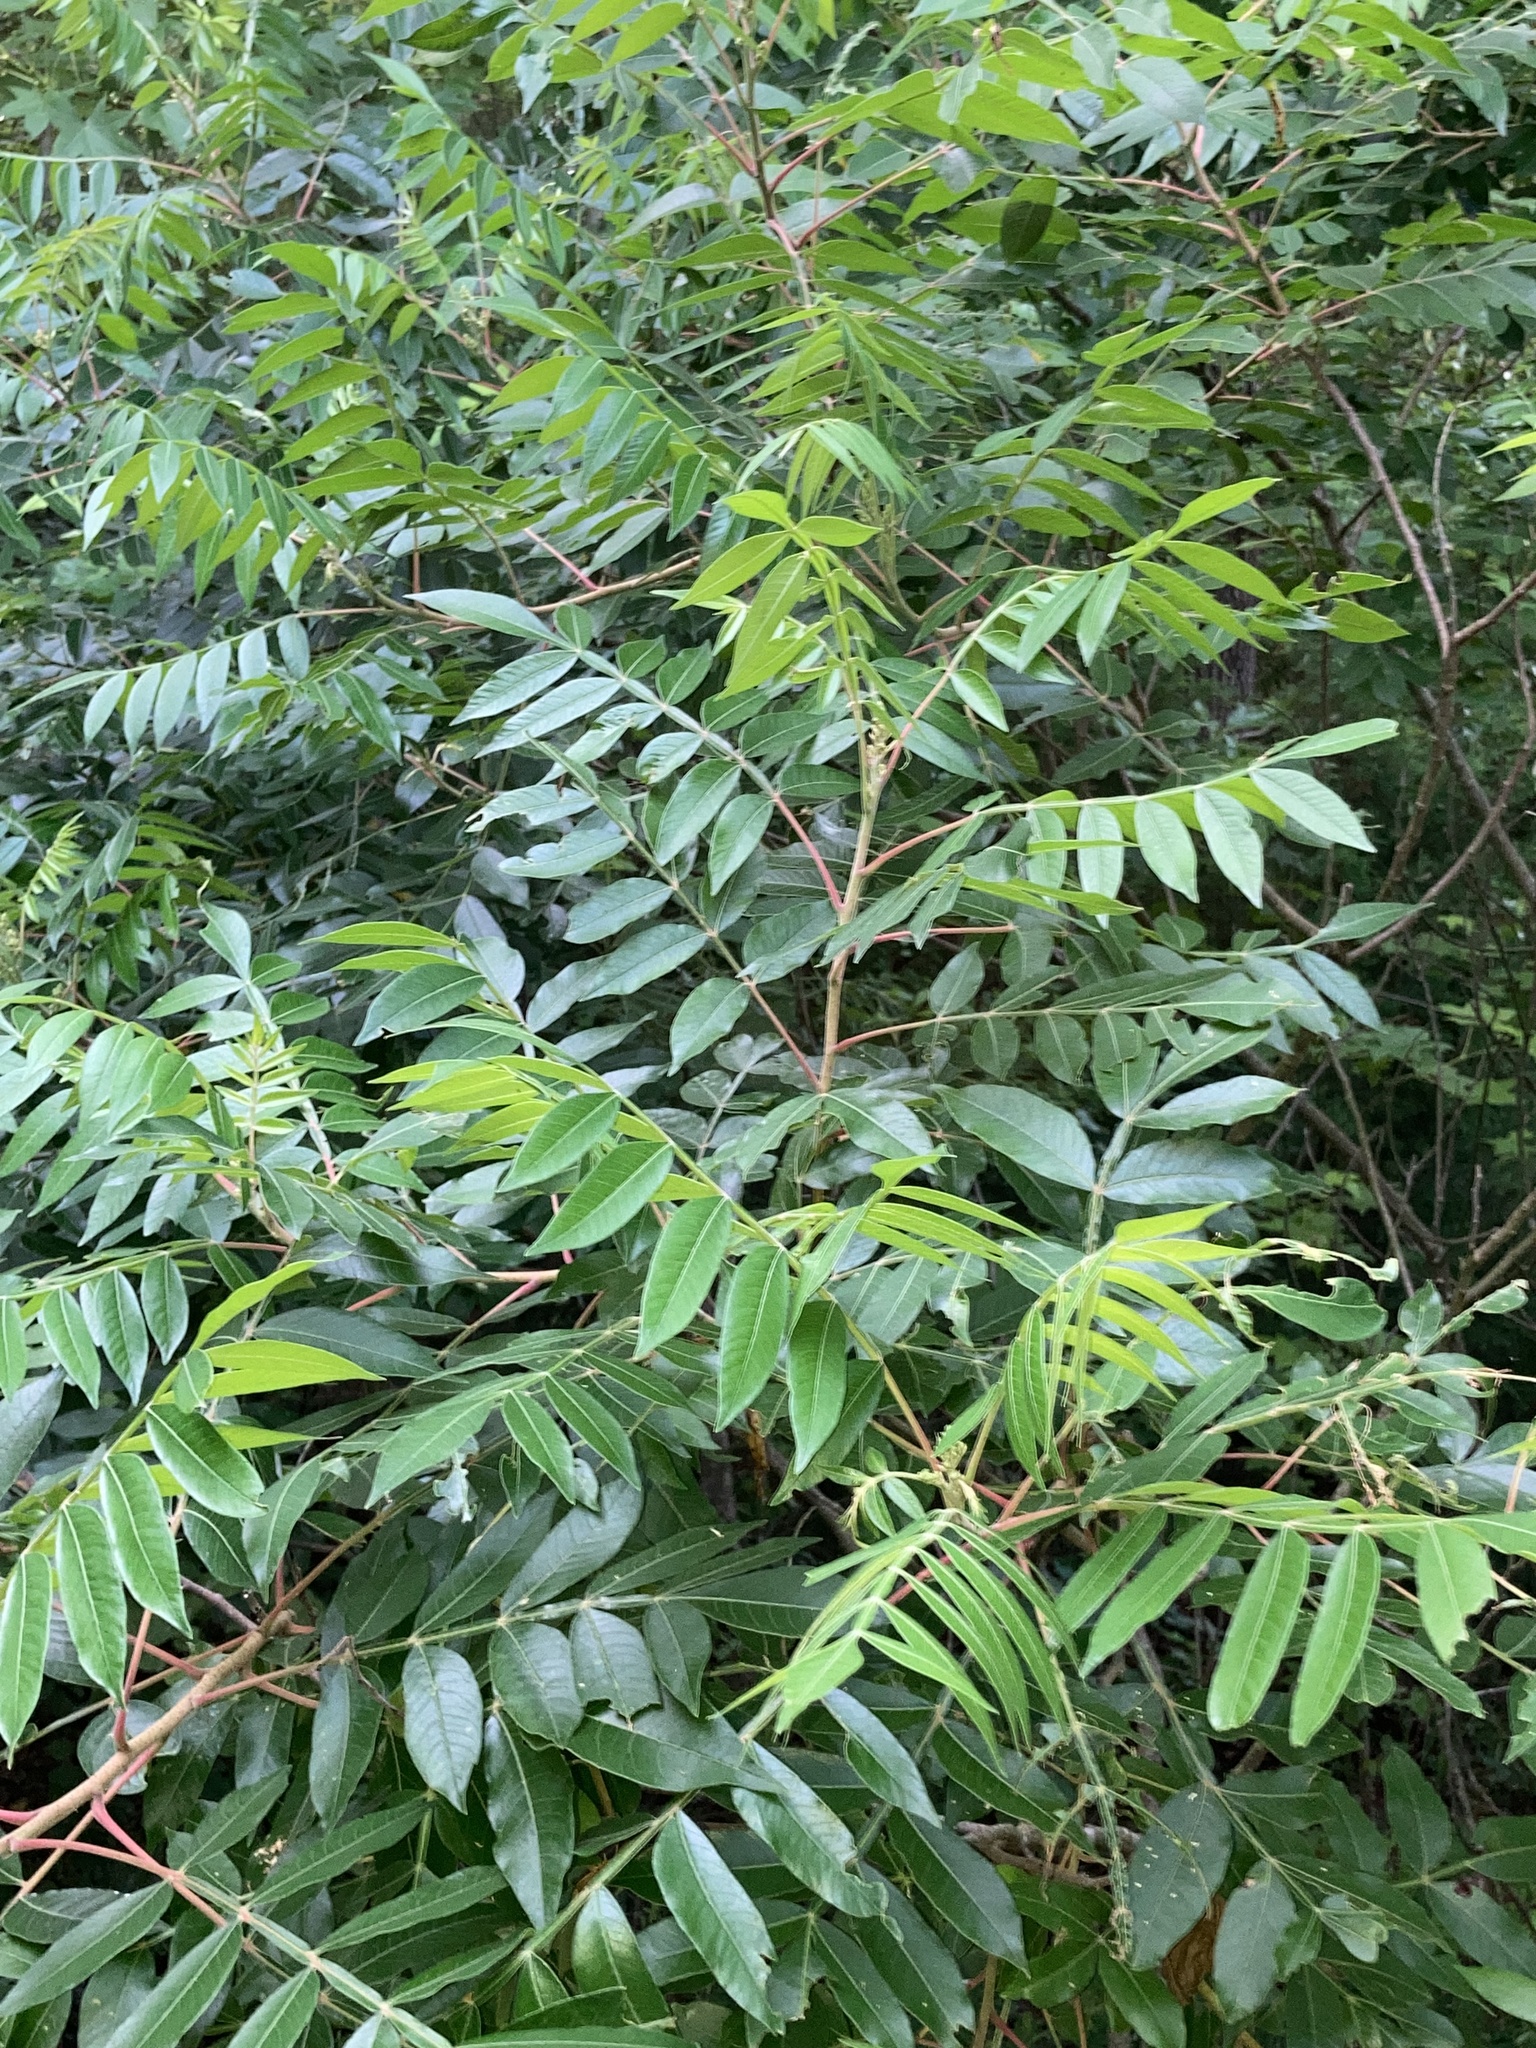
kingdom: Plantae
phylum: Tracheophyta
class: Magnoliopsida
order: Sapindales
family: Anacardiaceae
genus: Rhus
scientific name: Rhus copallina
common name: Shining sumac
